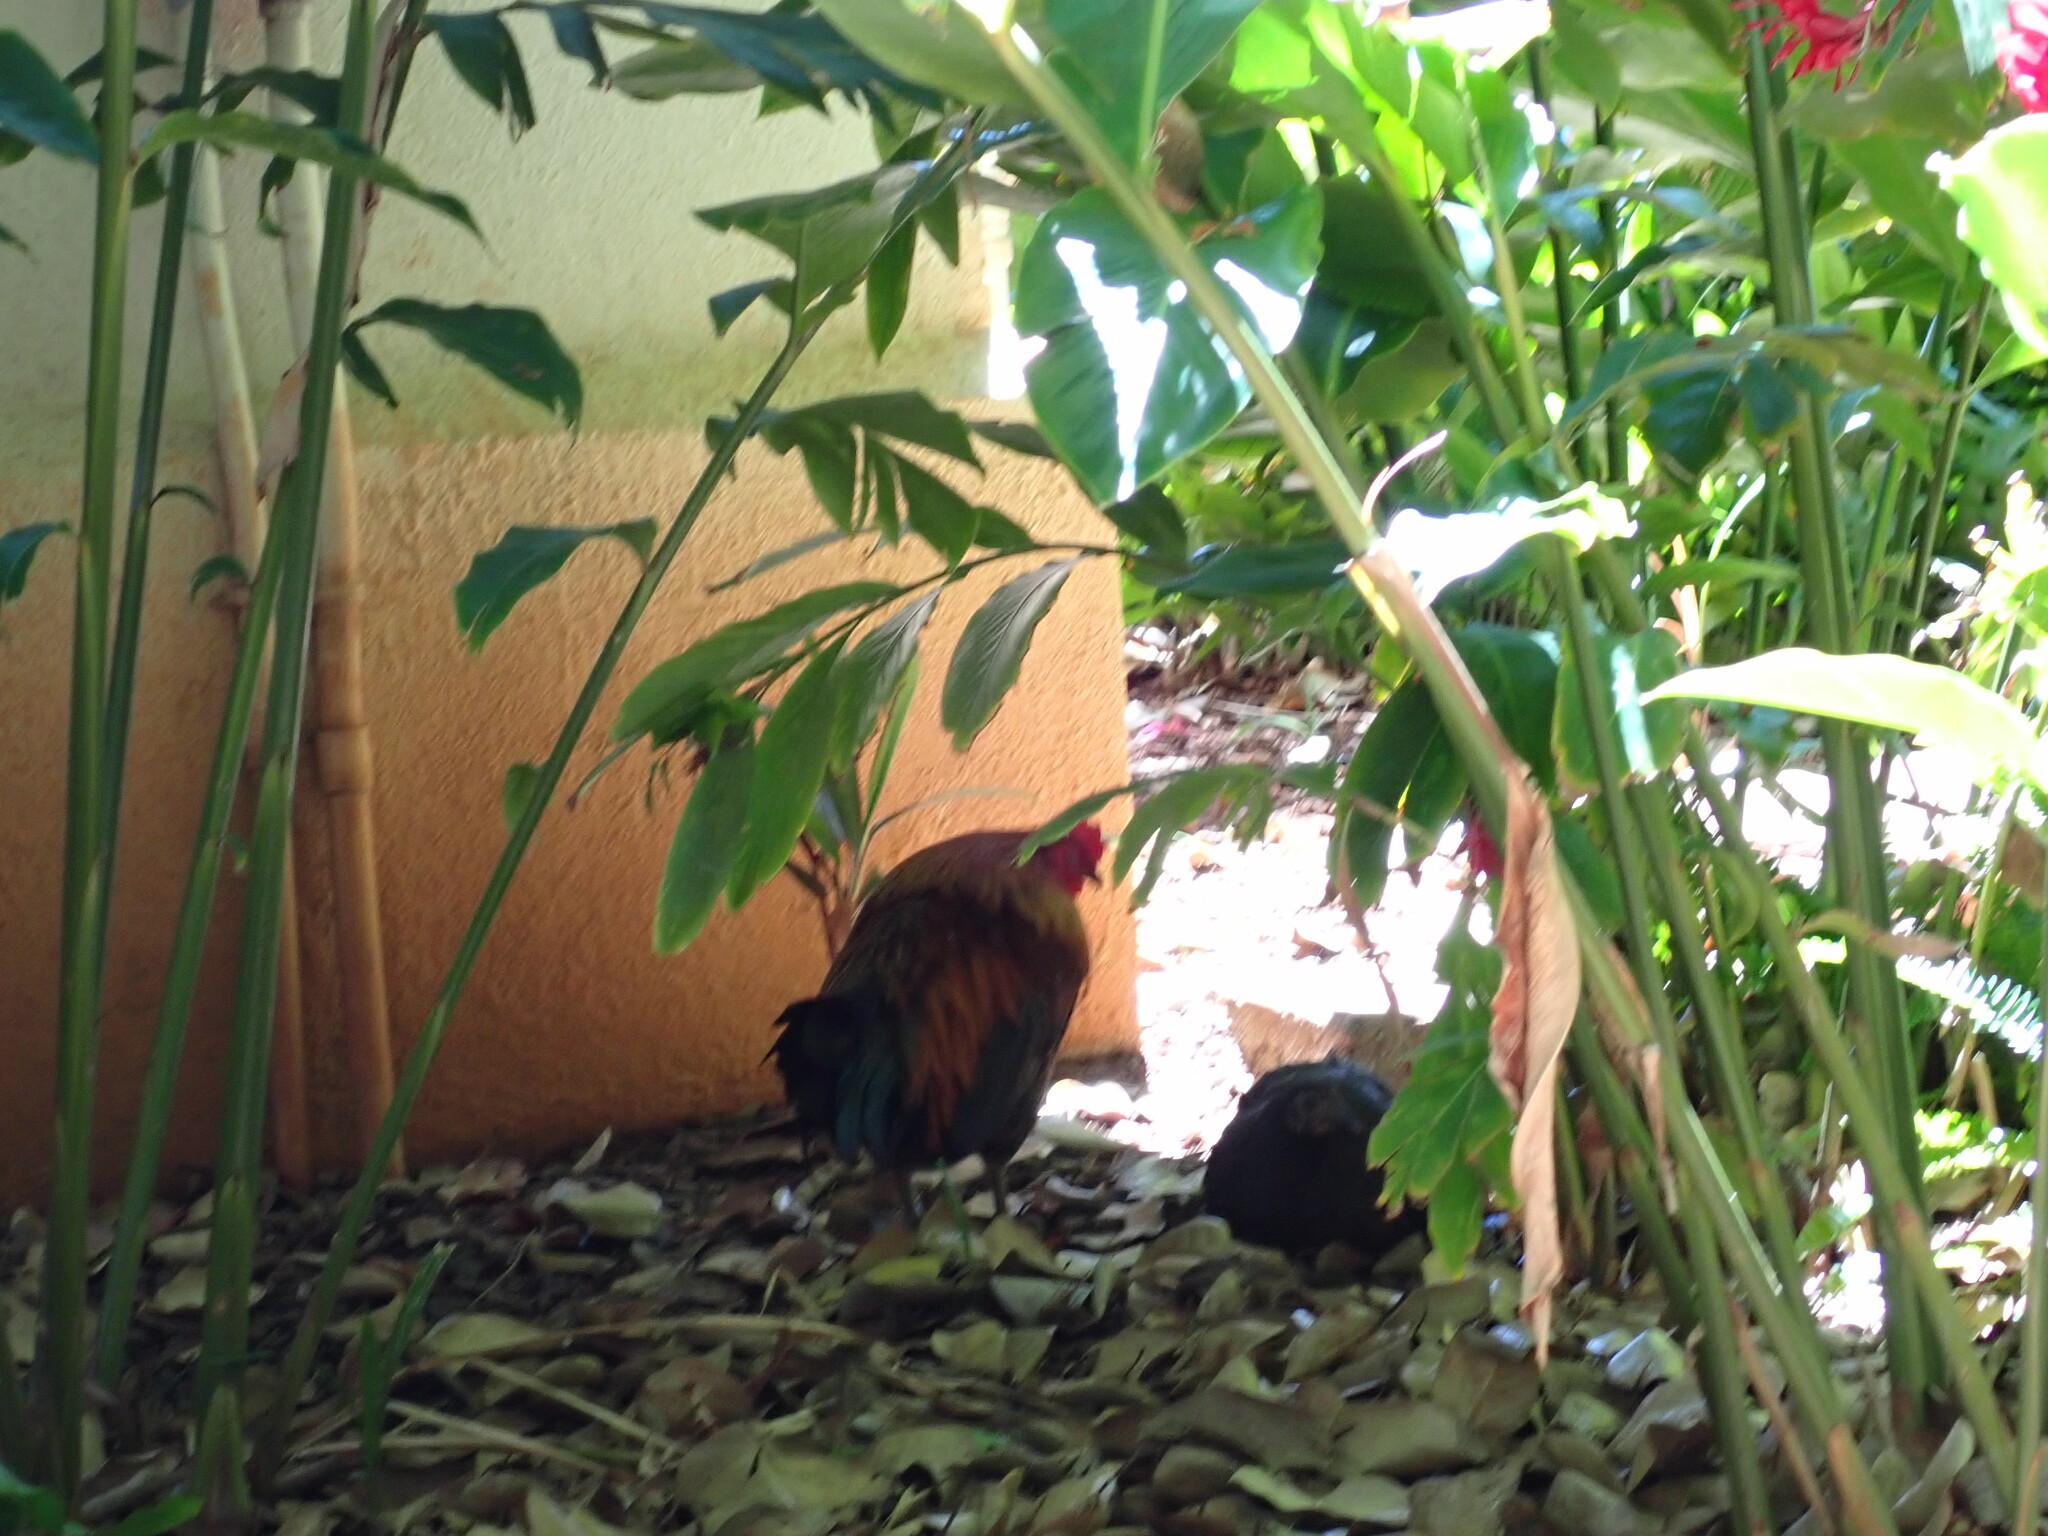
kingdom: Animalia
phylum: Chordata
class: Aves
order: Galliformes
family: Phasianidae
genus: Gallus
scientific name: Gallus gallus
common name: Red junglefowl
